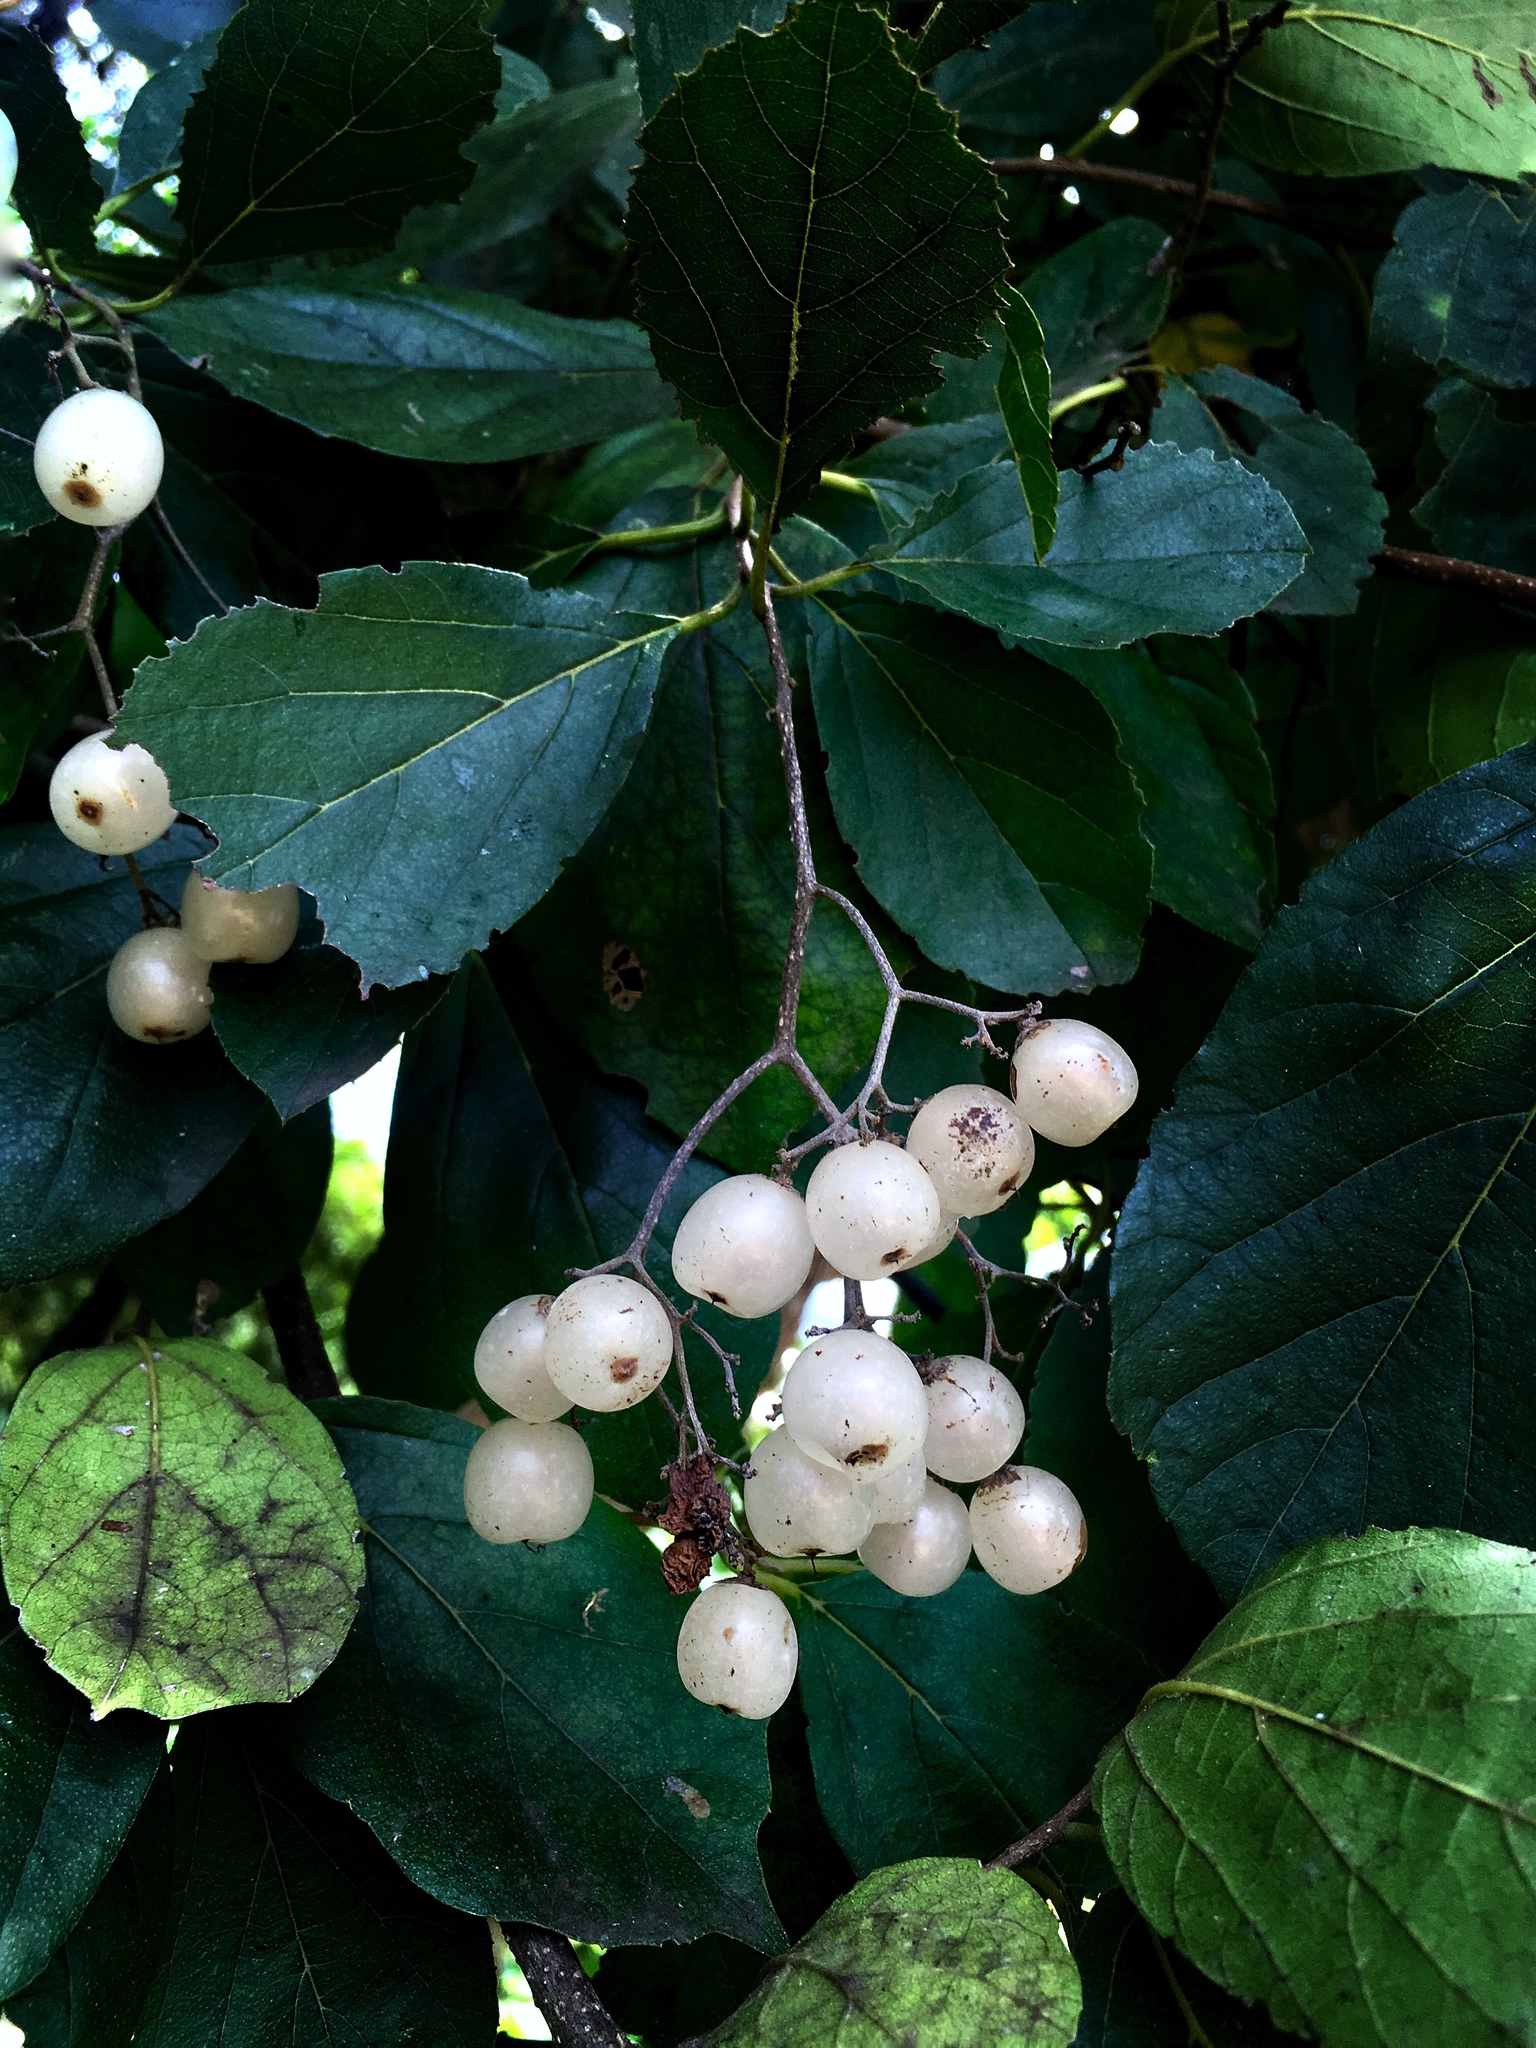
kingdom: Plantae
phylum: Tracheophyta
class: Magnoliopsida
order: Boraginales
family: Cordiaceae
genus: Cordia
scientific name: Cordia dentata
